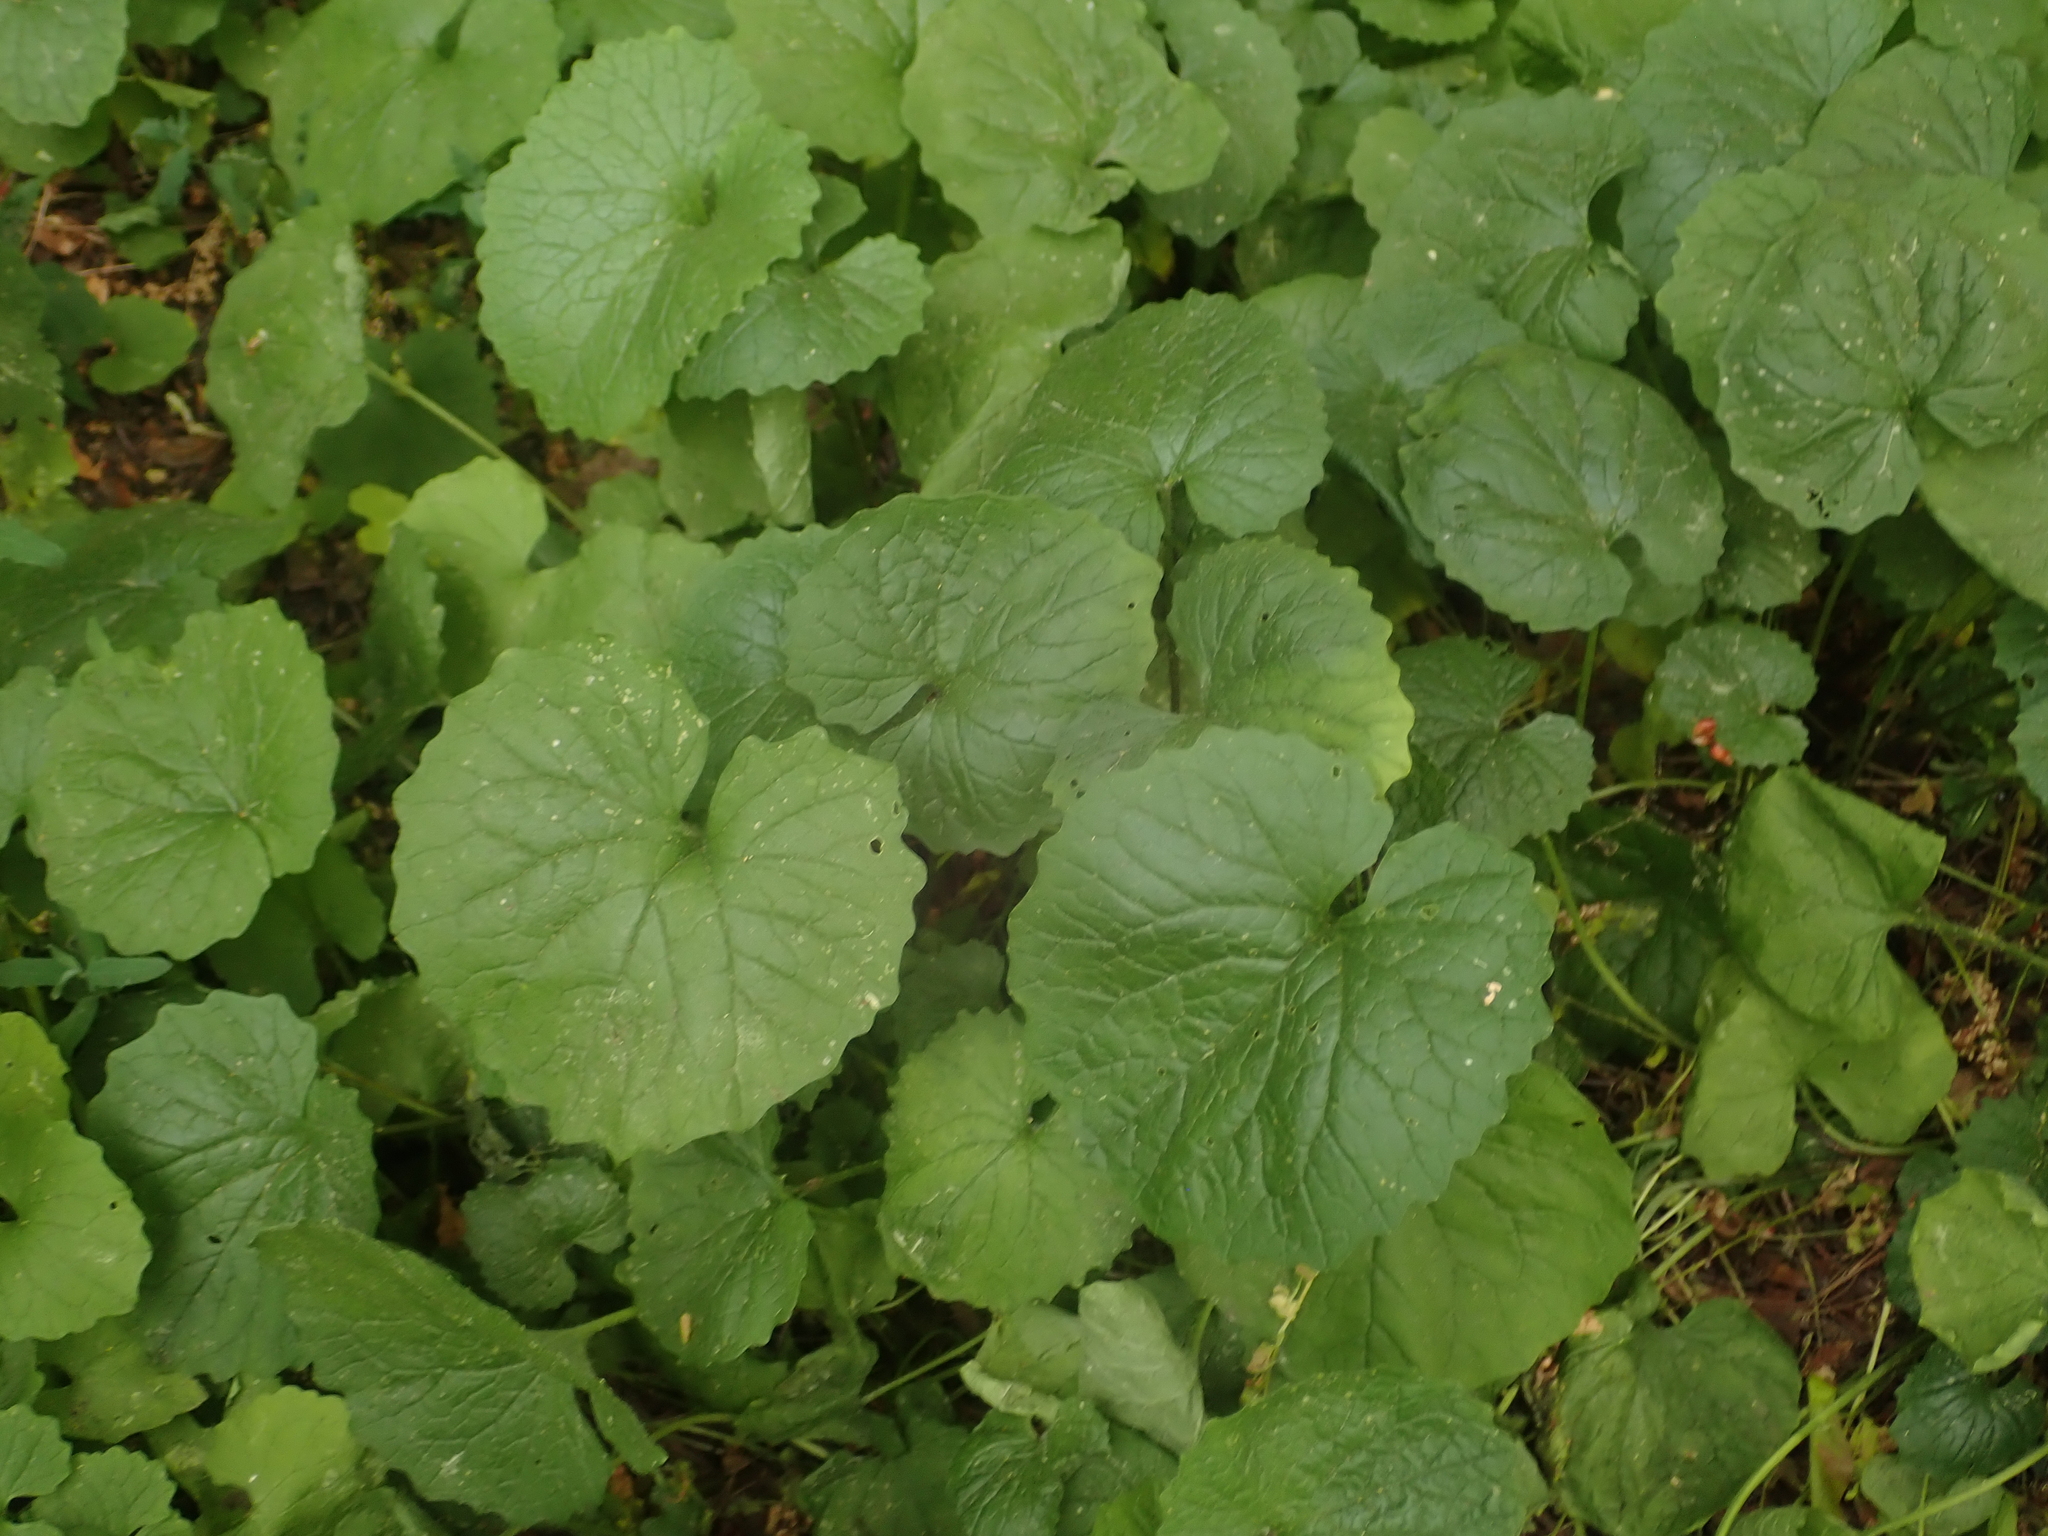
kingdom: Plantae
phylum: Tracheophyta
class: Magnoliopsida
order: Brassicales
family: Brassicaceae
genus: Alliaria
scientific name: Alliaria petiolata
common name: Garlic mustard
